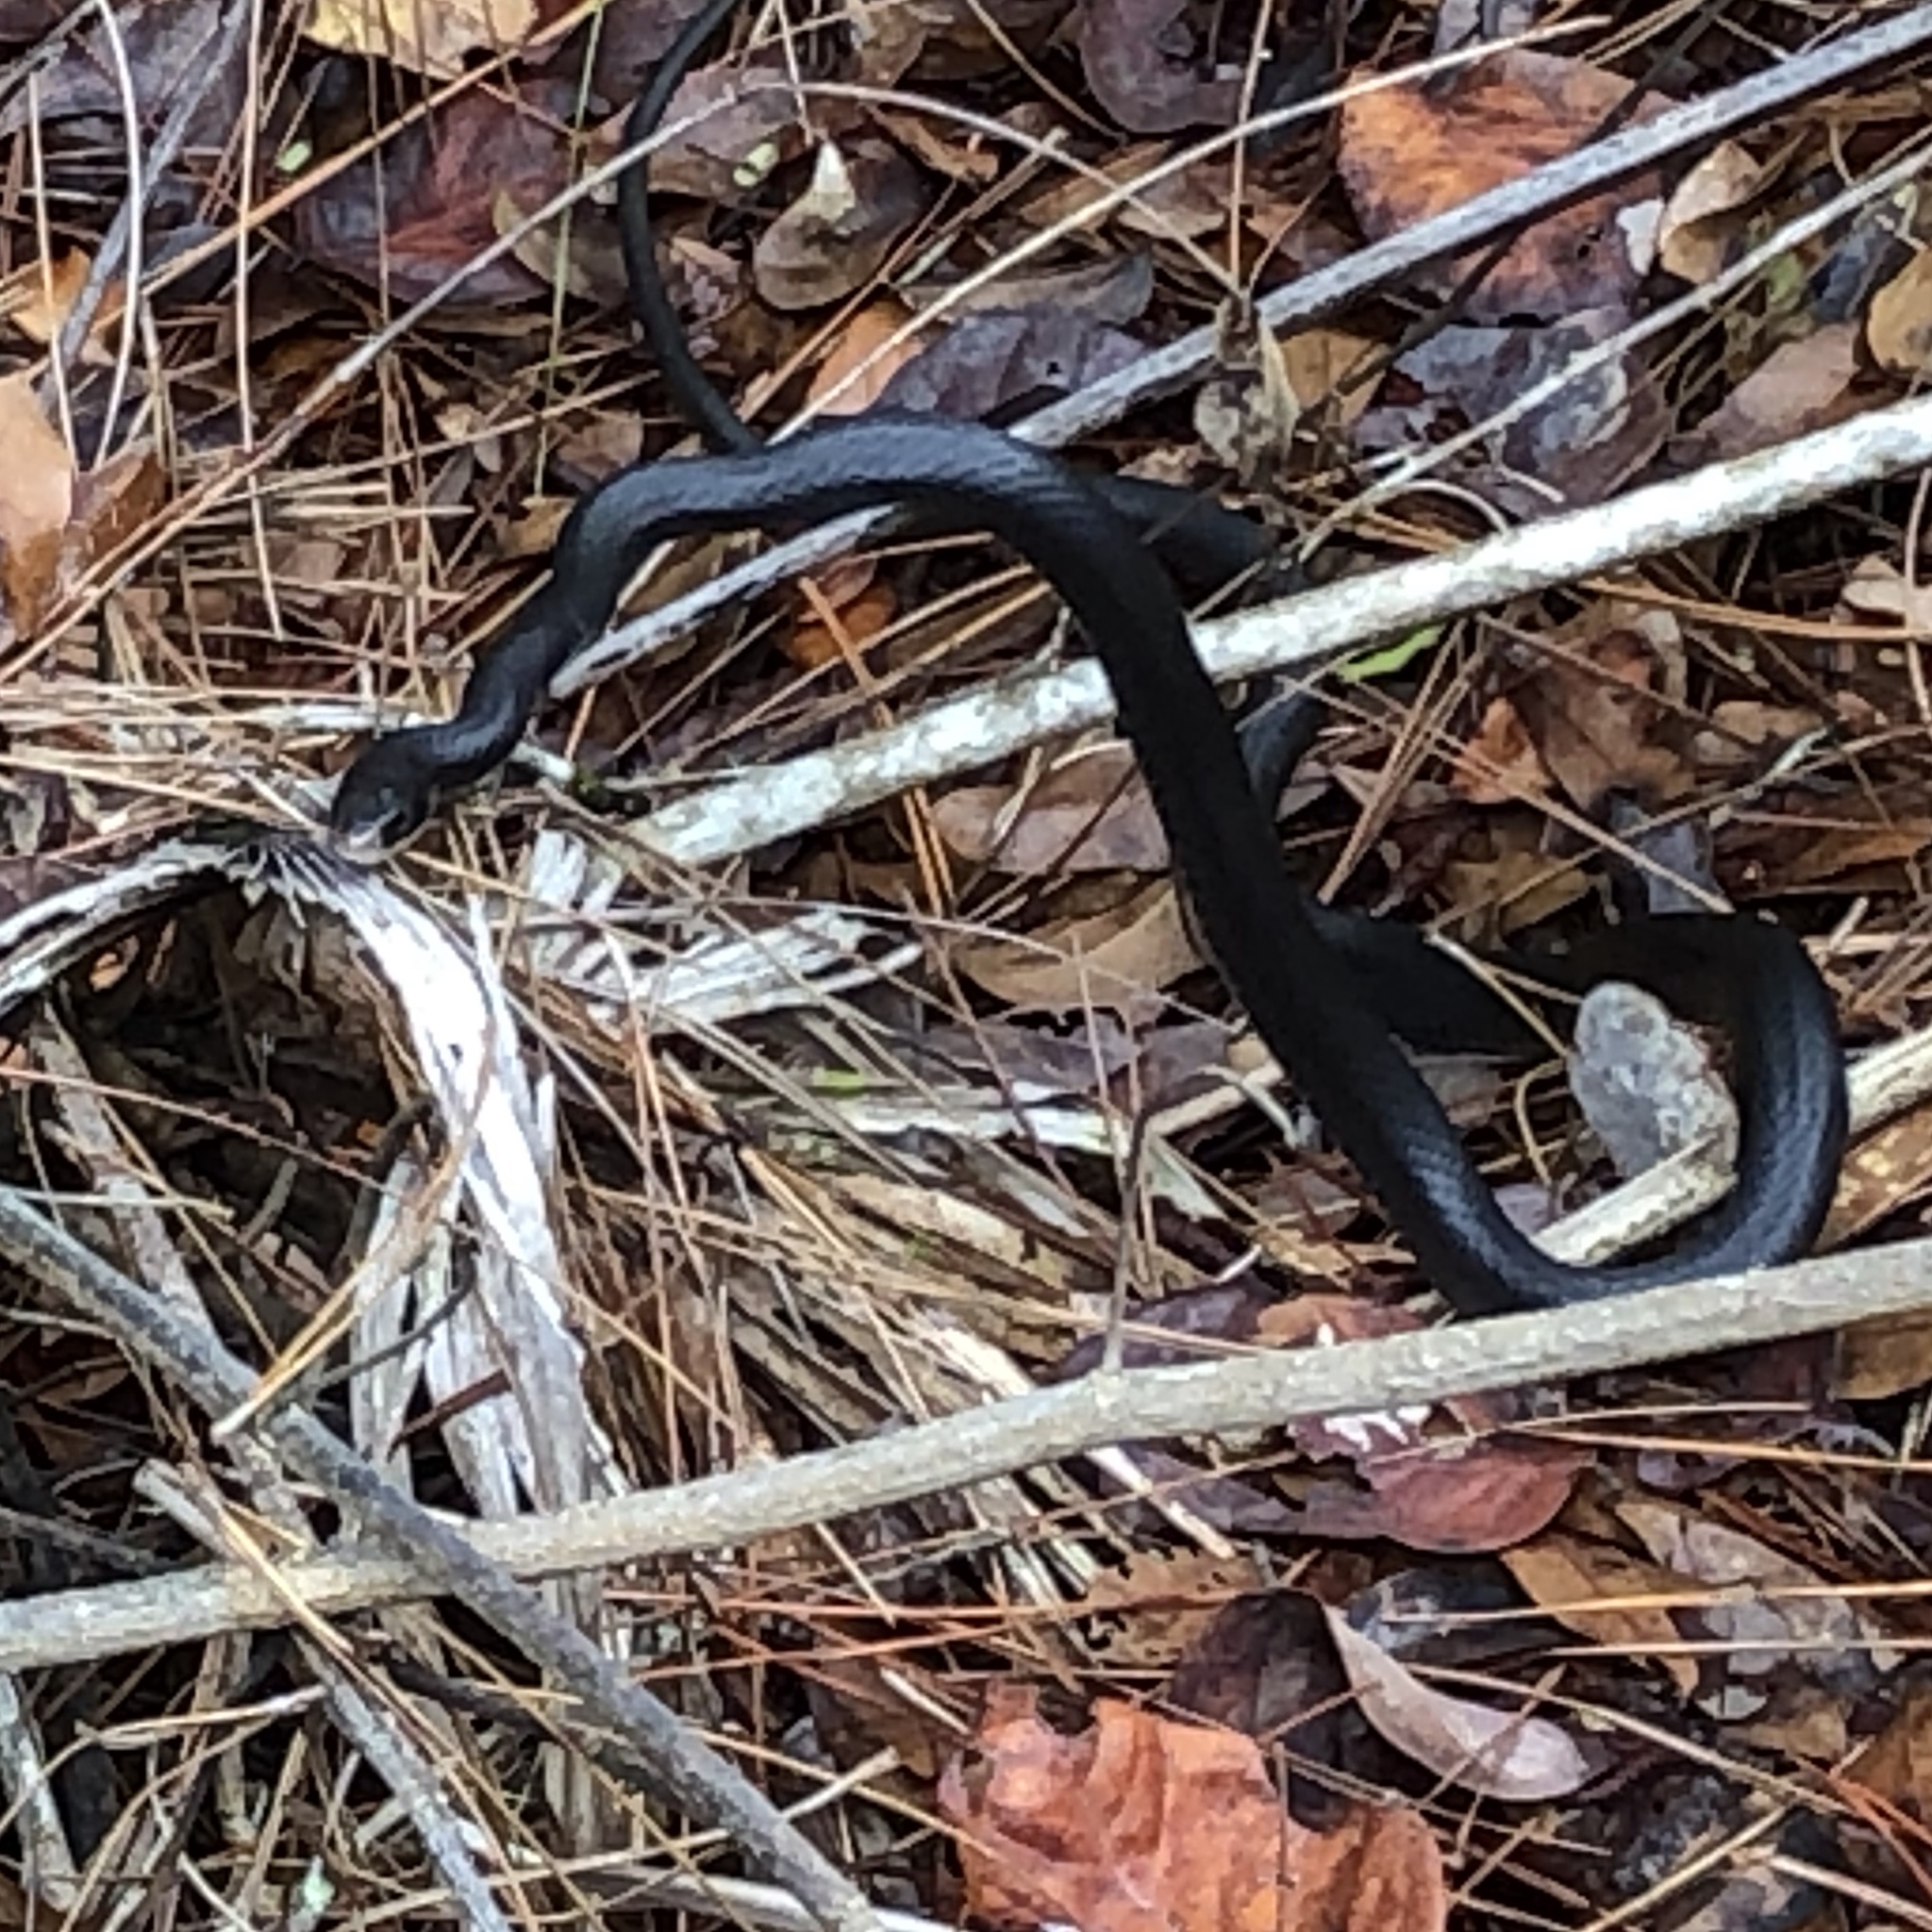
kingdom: Animalia
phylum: Chordata
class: Squamata
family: Colubridae
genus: Coluber
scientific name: Coluber constrictor
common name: Eastern racer
